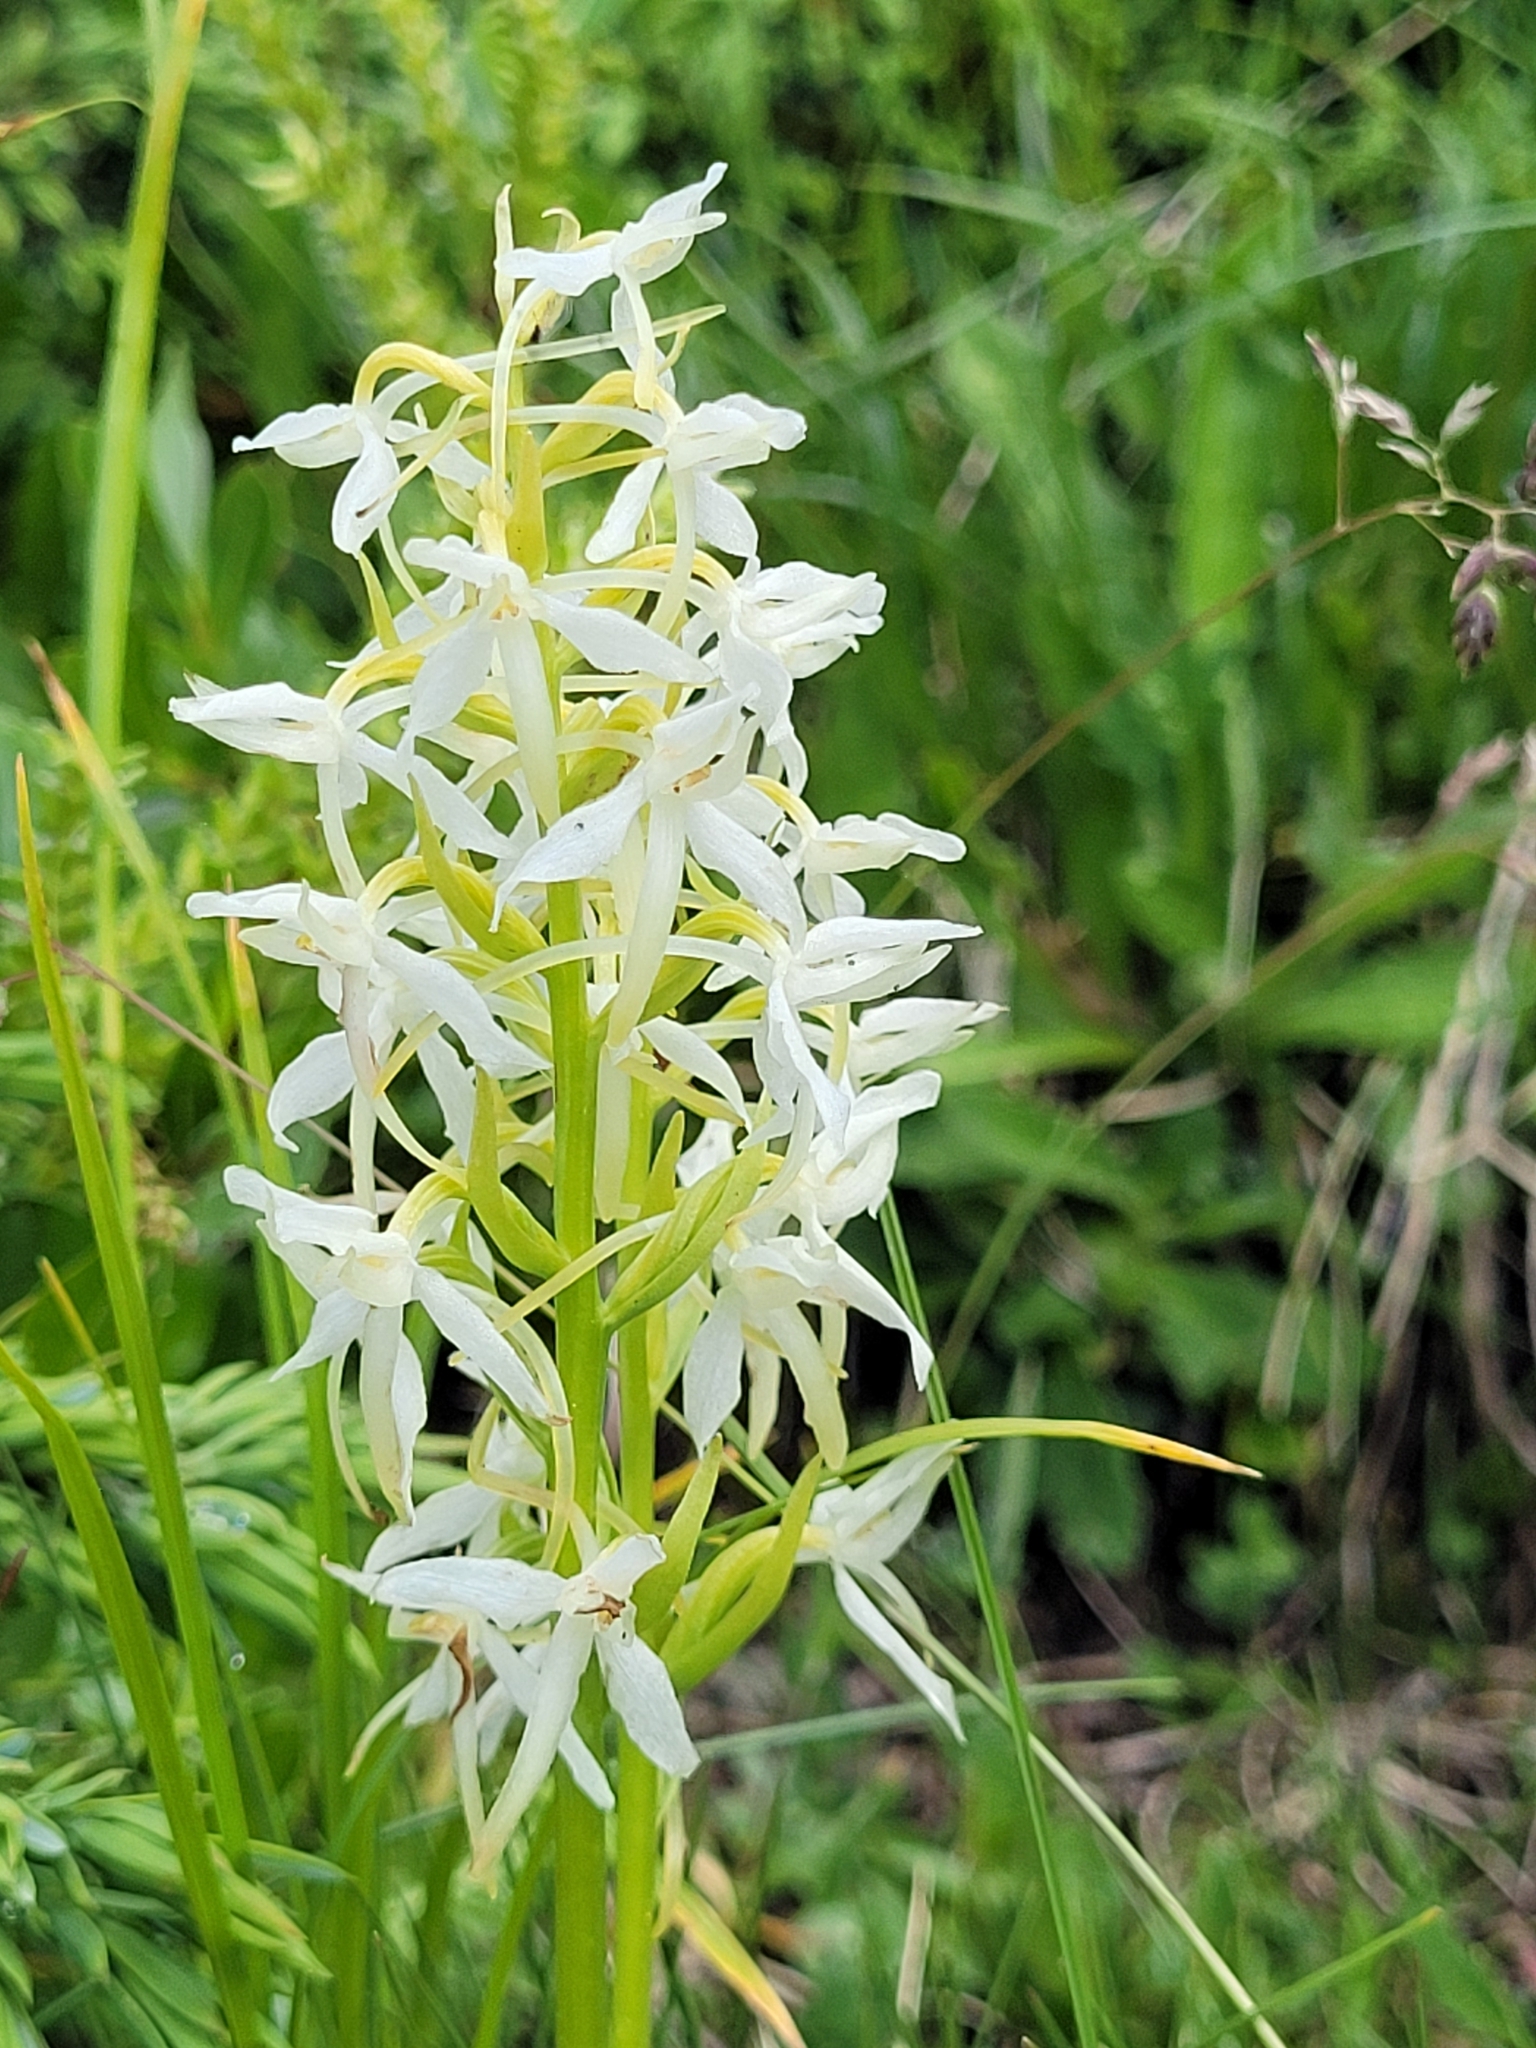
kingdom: Plantae
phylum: Tracheophyta
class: Liliopsida
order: Asparagales
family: Orchidaceae
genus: Platanthera
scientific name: Platanthera bifolia
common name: Lesser butterfly-orchid
